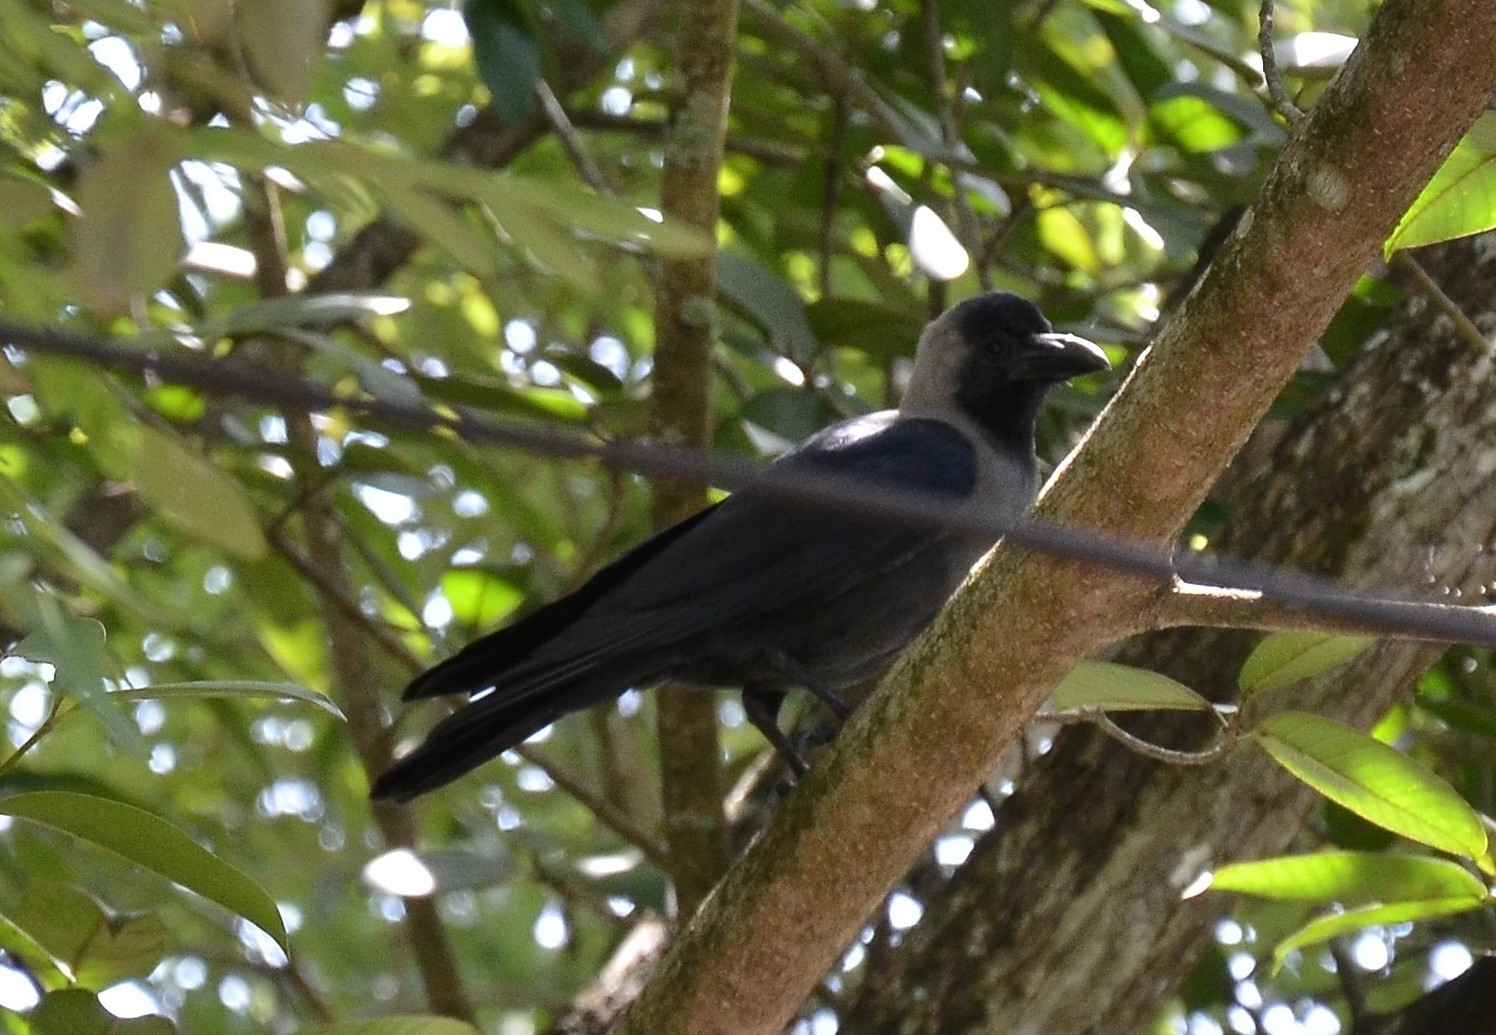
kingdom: Animalia
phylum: Chordata
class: Aves
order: Passeriformes
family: Corvidae
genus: Corvus
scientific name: Corvus splendens
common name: House crow
